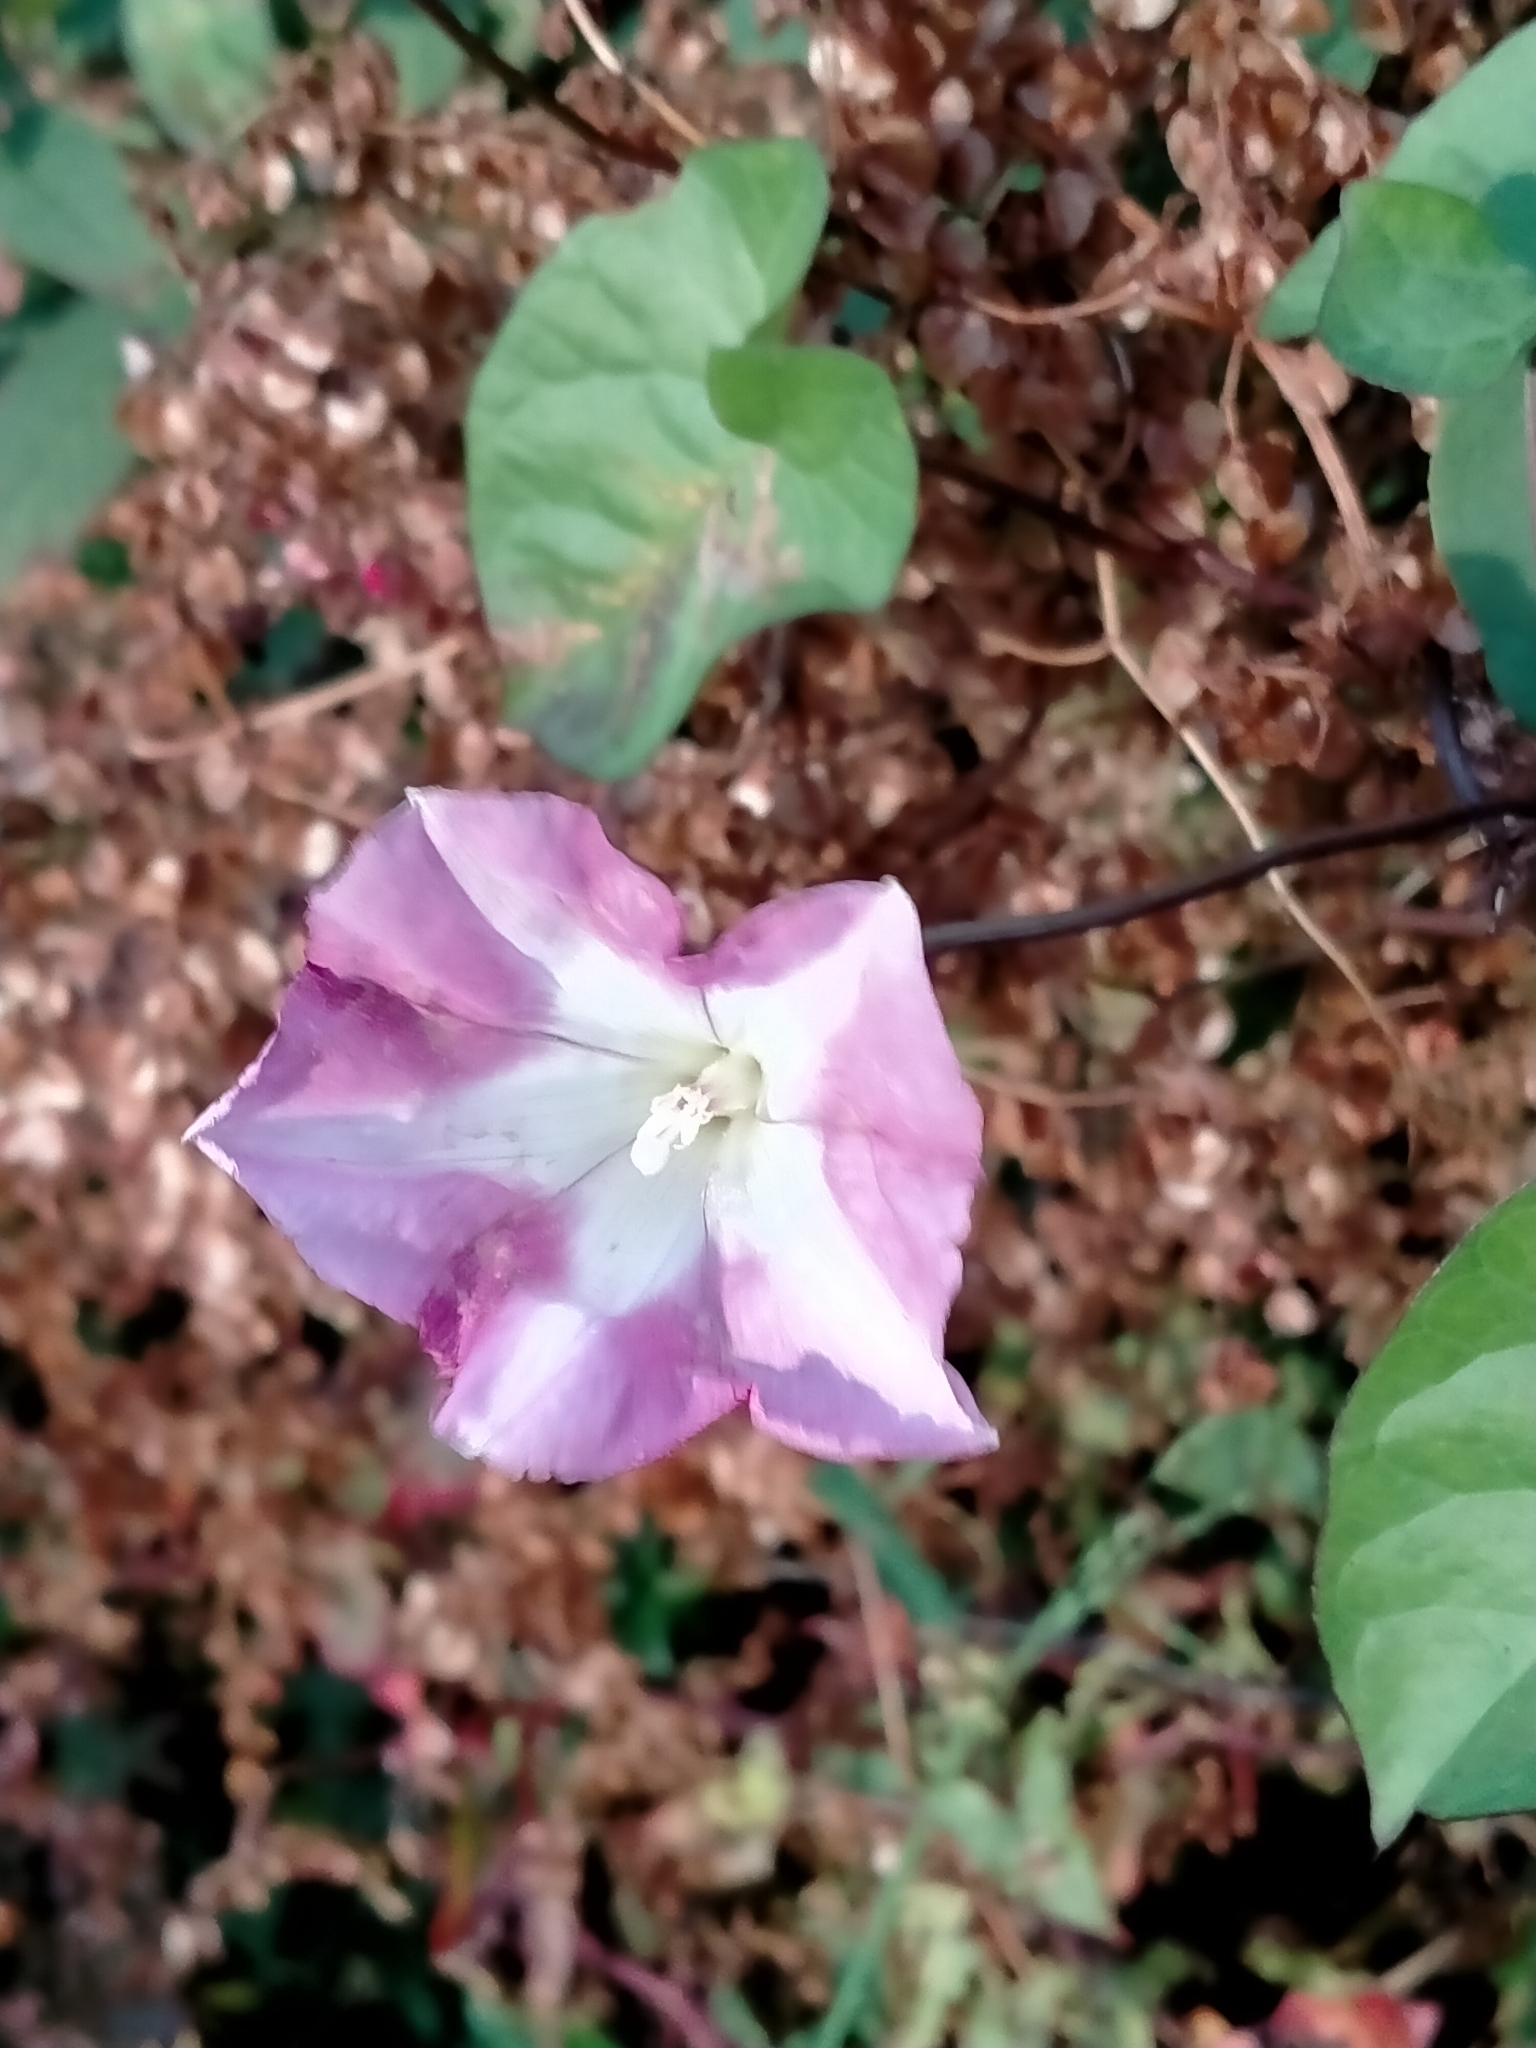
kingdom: Plantae
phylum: Tracheophyta
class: Magnoliopsida
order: Solanales
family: Convolvulaceae
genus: Calystegia
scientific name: Calystegia sepium
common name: Hedge bindweed
